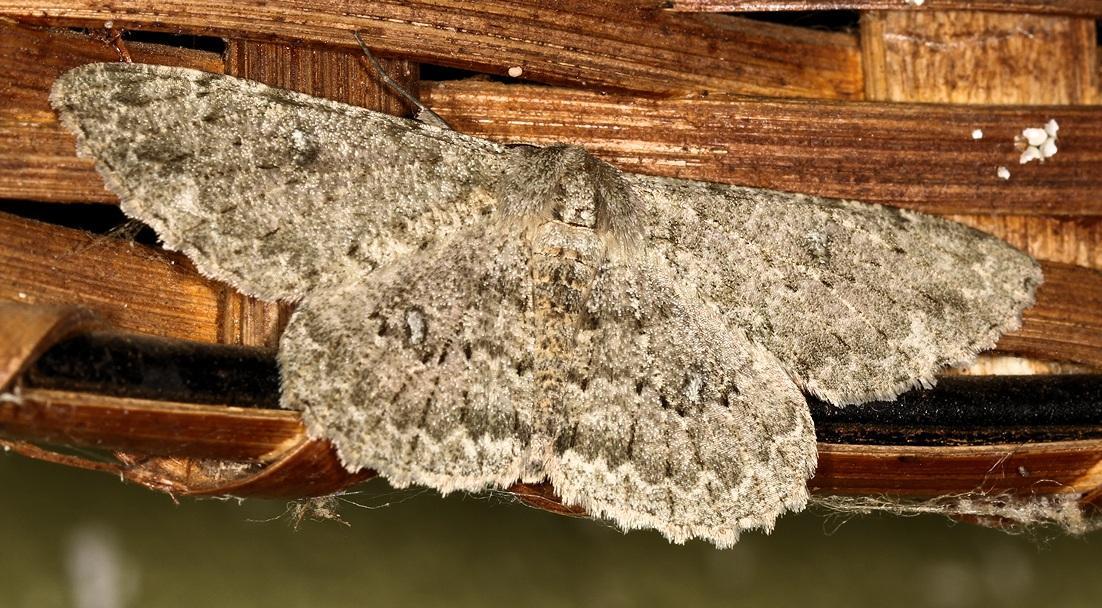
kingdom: Animalia
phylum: Arthropoda
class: Insecta
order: Lepidoptera
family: Geometridae
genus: Zeuctoboarmia
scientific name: Zeuctoboarmia cataimena
